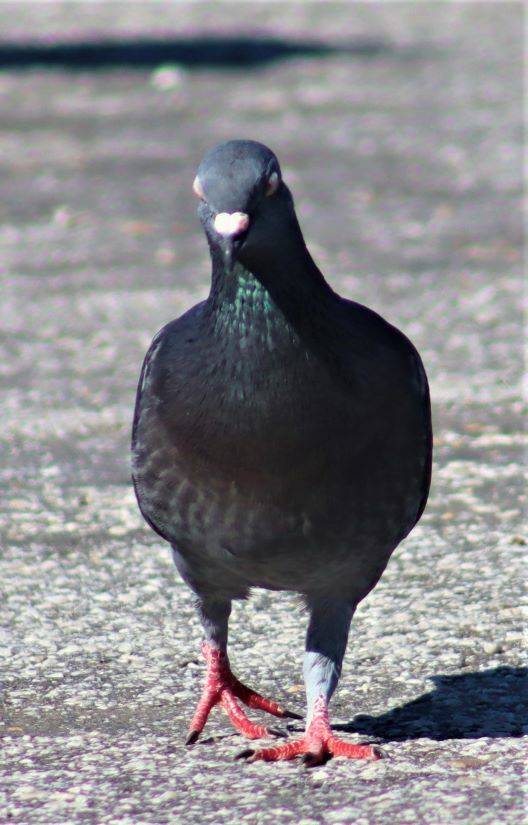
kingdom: Animalia
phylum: Chordata
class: Aves
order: Columbiformes
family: Columbidae
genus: Columba
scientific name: Columba livia
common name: Rock pigeon
